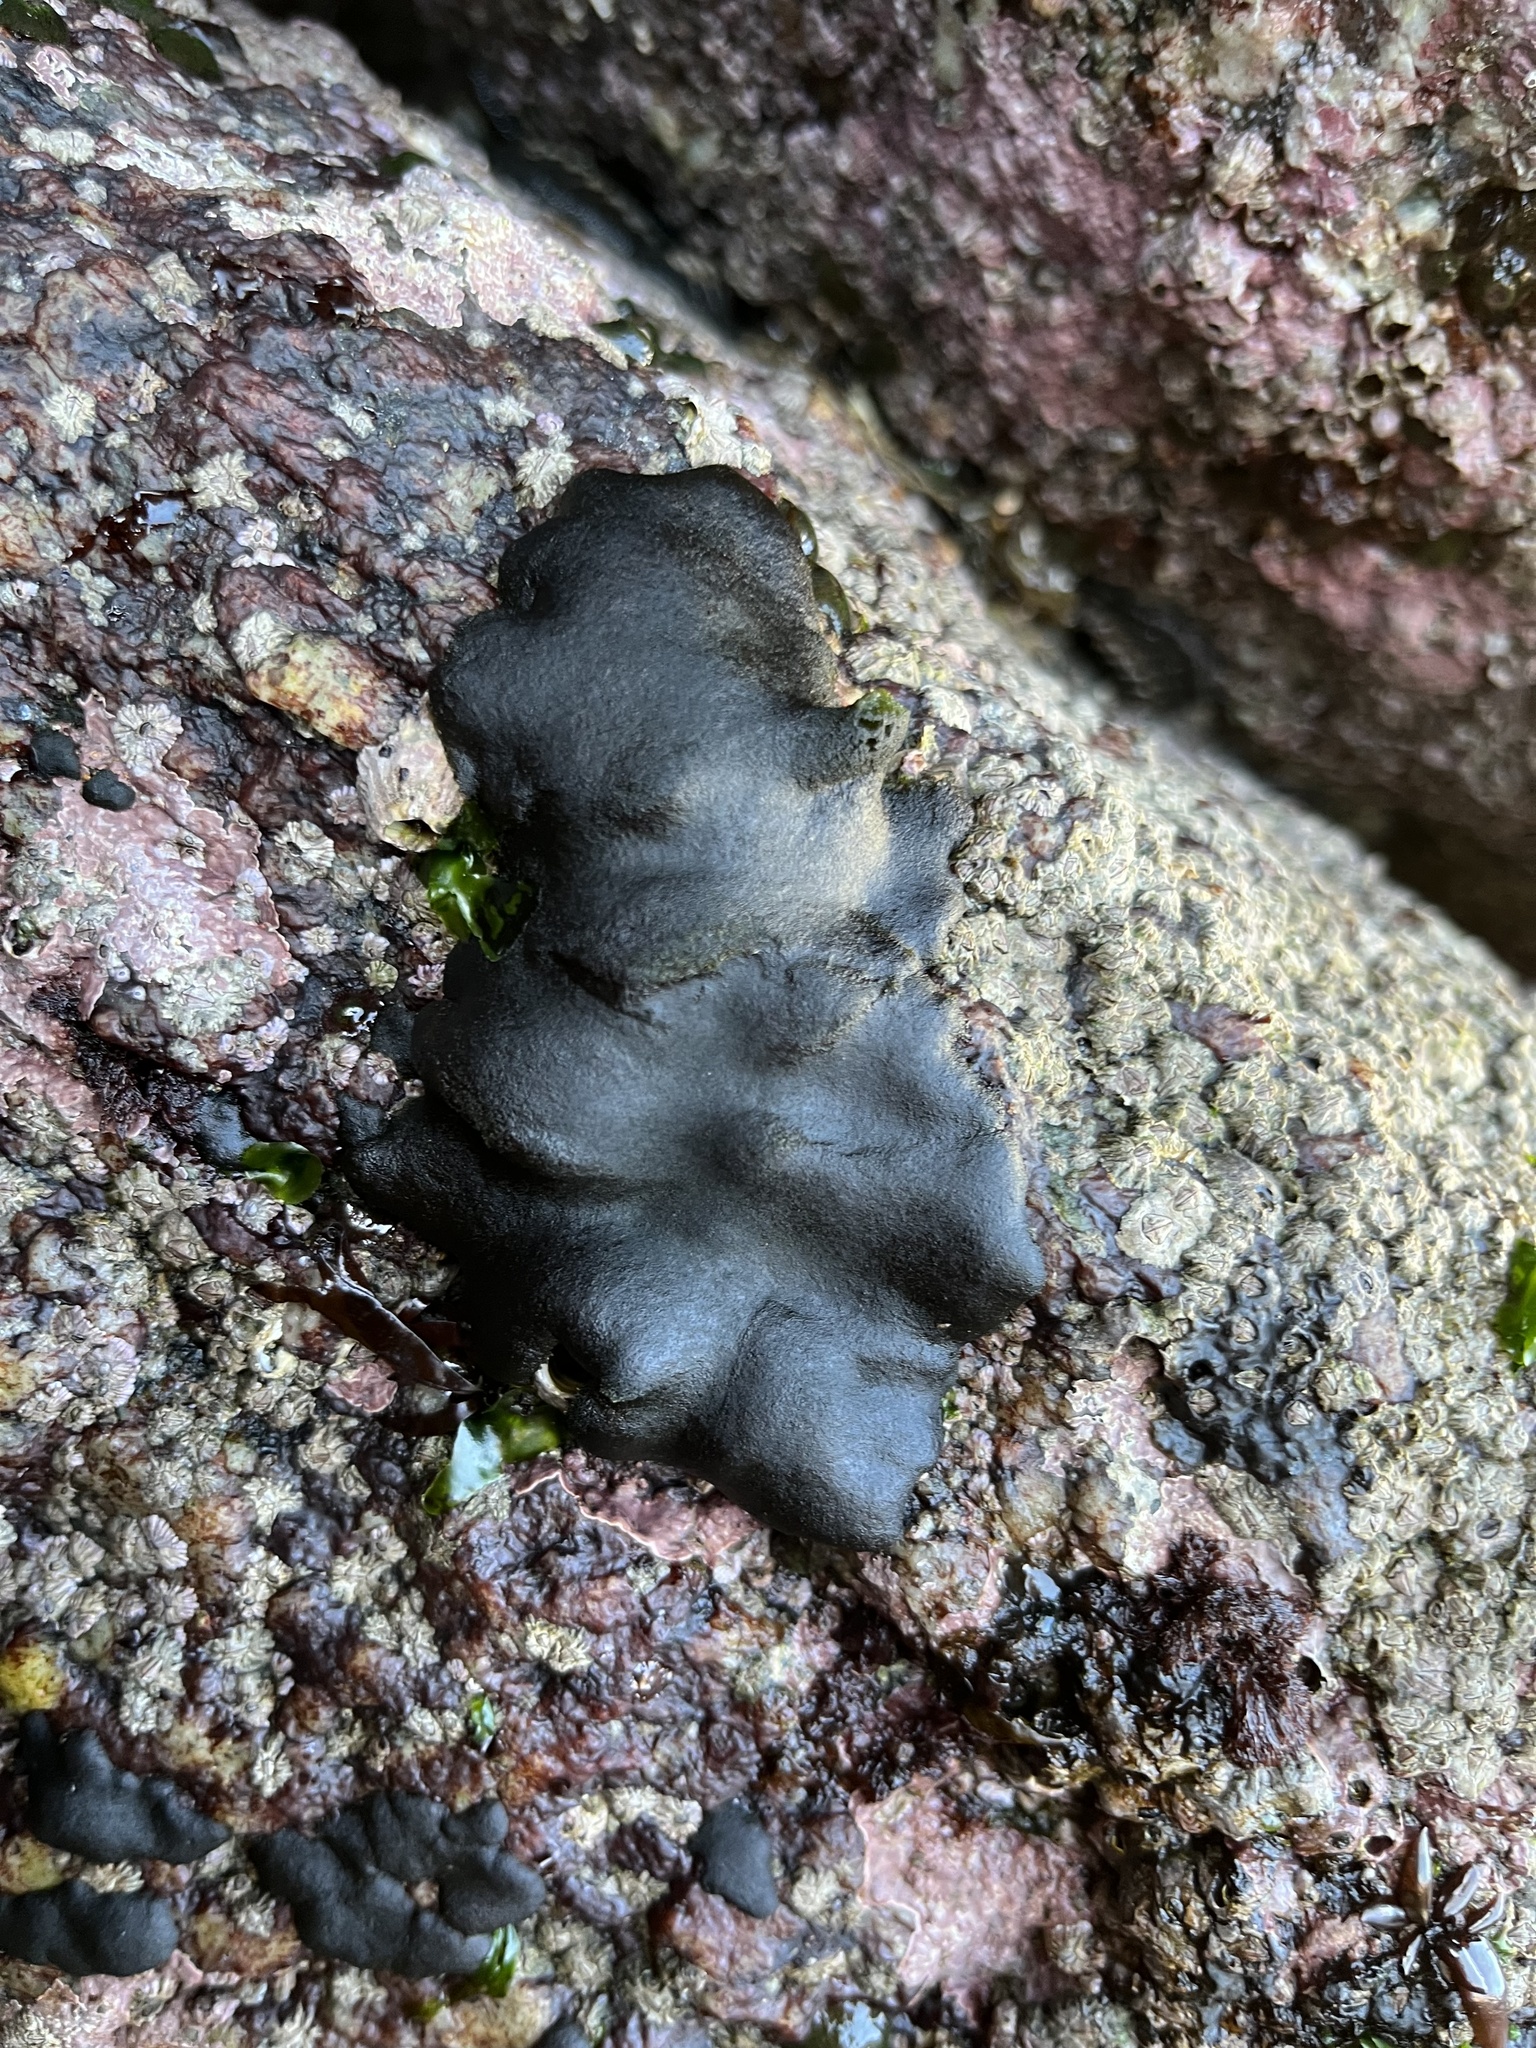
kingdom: Plantae
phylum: Chlorophyta
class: Ulvophyceae
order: Bryopsidales
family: Codiaceae
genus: Codium
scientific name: Codium
